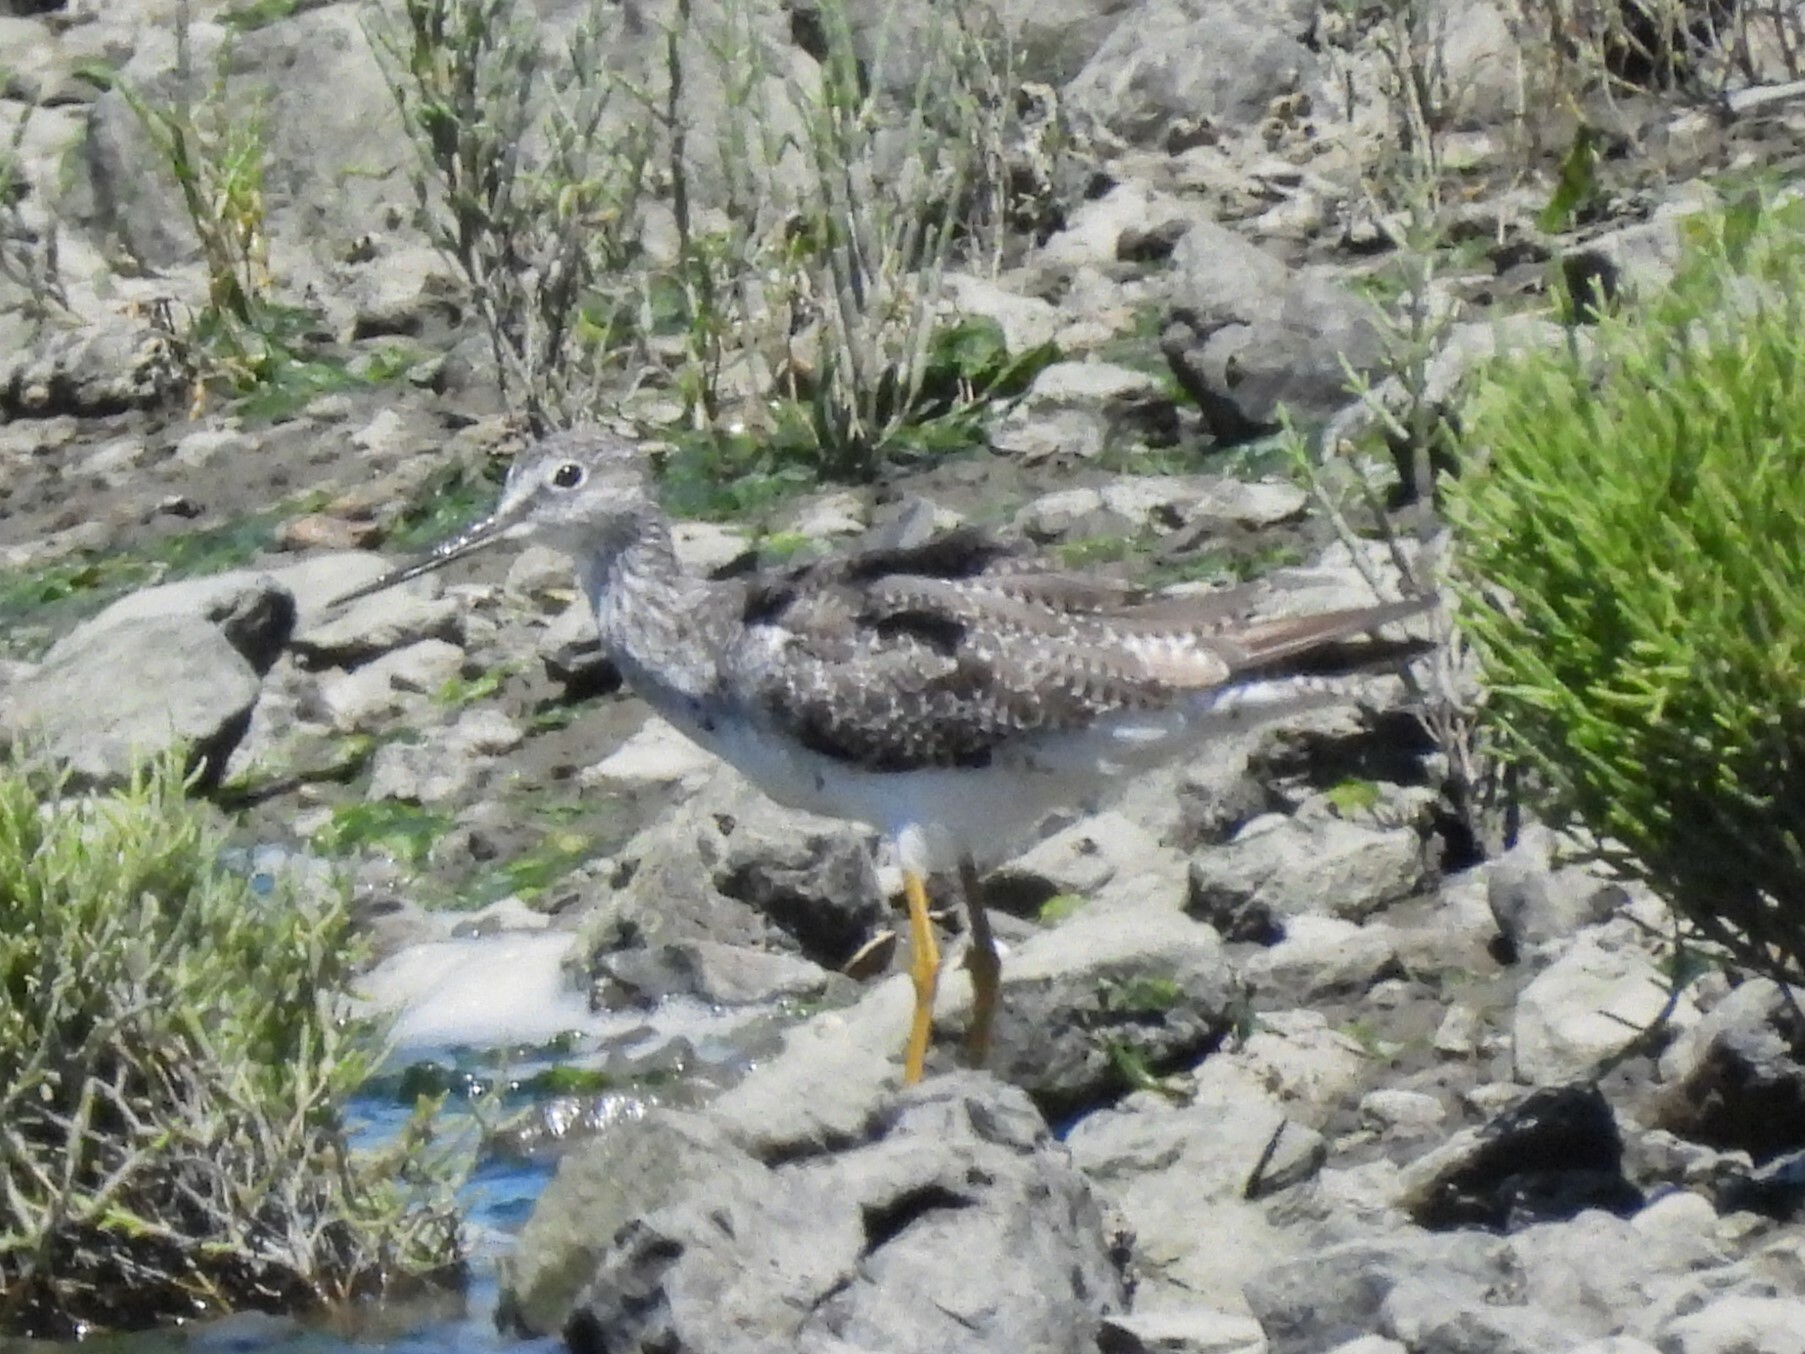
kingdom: Animalia
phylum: Chordata
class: Aves
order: Charadriiformes
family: Scolopacidae
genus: Tringa
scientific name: Tringa melanoleuca
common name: Greater yellowlegs
